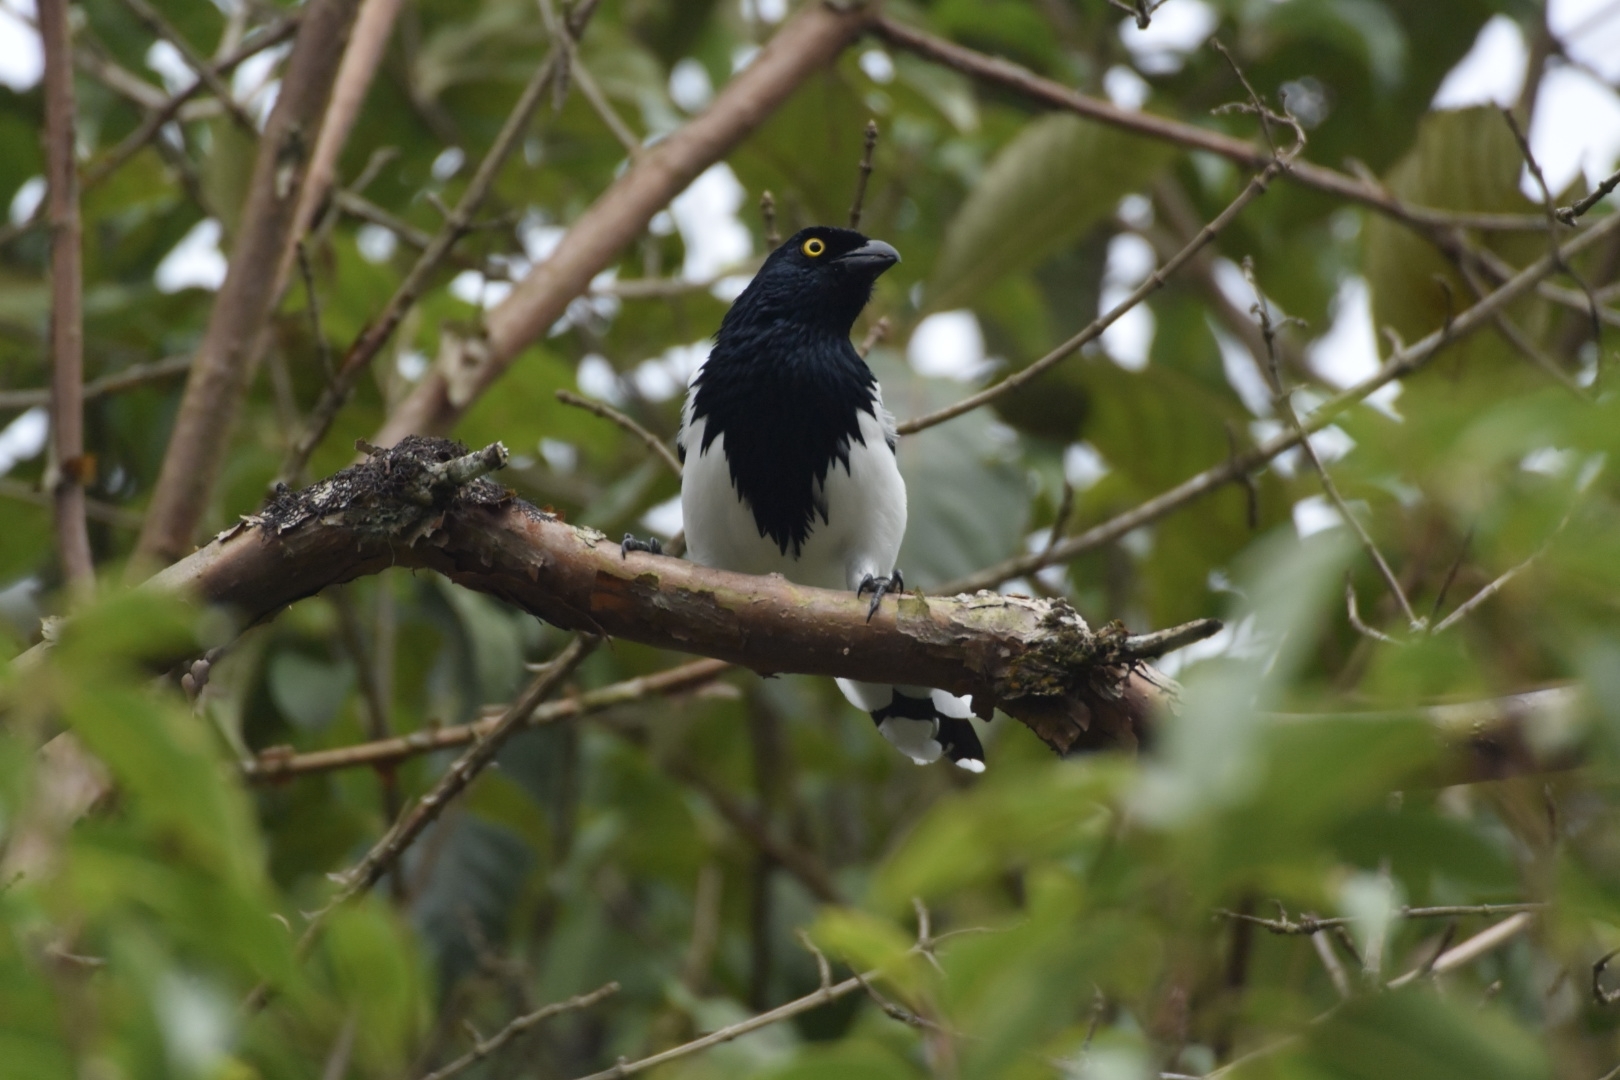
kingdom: Animalia
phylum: Chordata
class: Aves
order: Passeriformes
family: Thraupidae
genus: Cissopis
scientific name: Cissopis leverianus
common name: Magpie tanager
